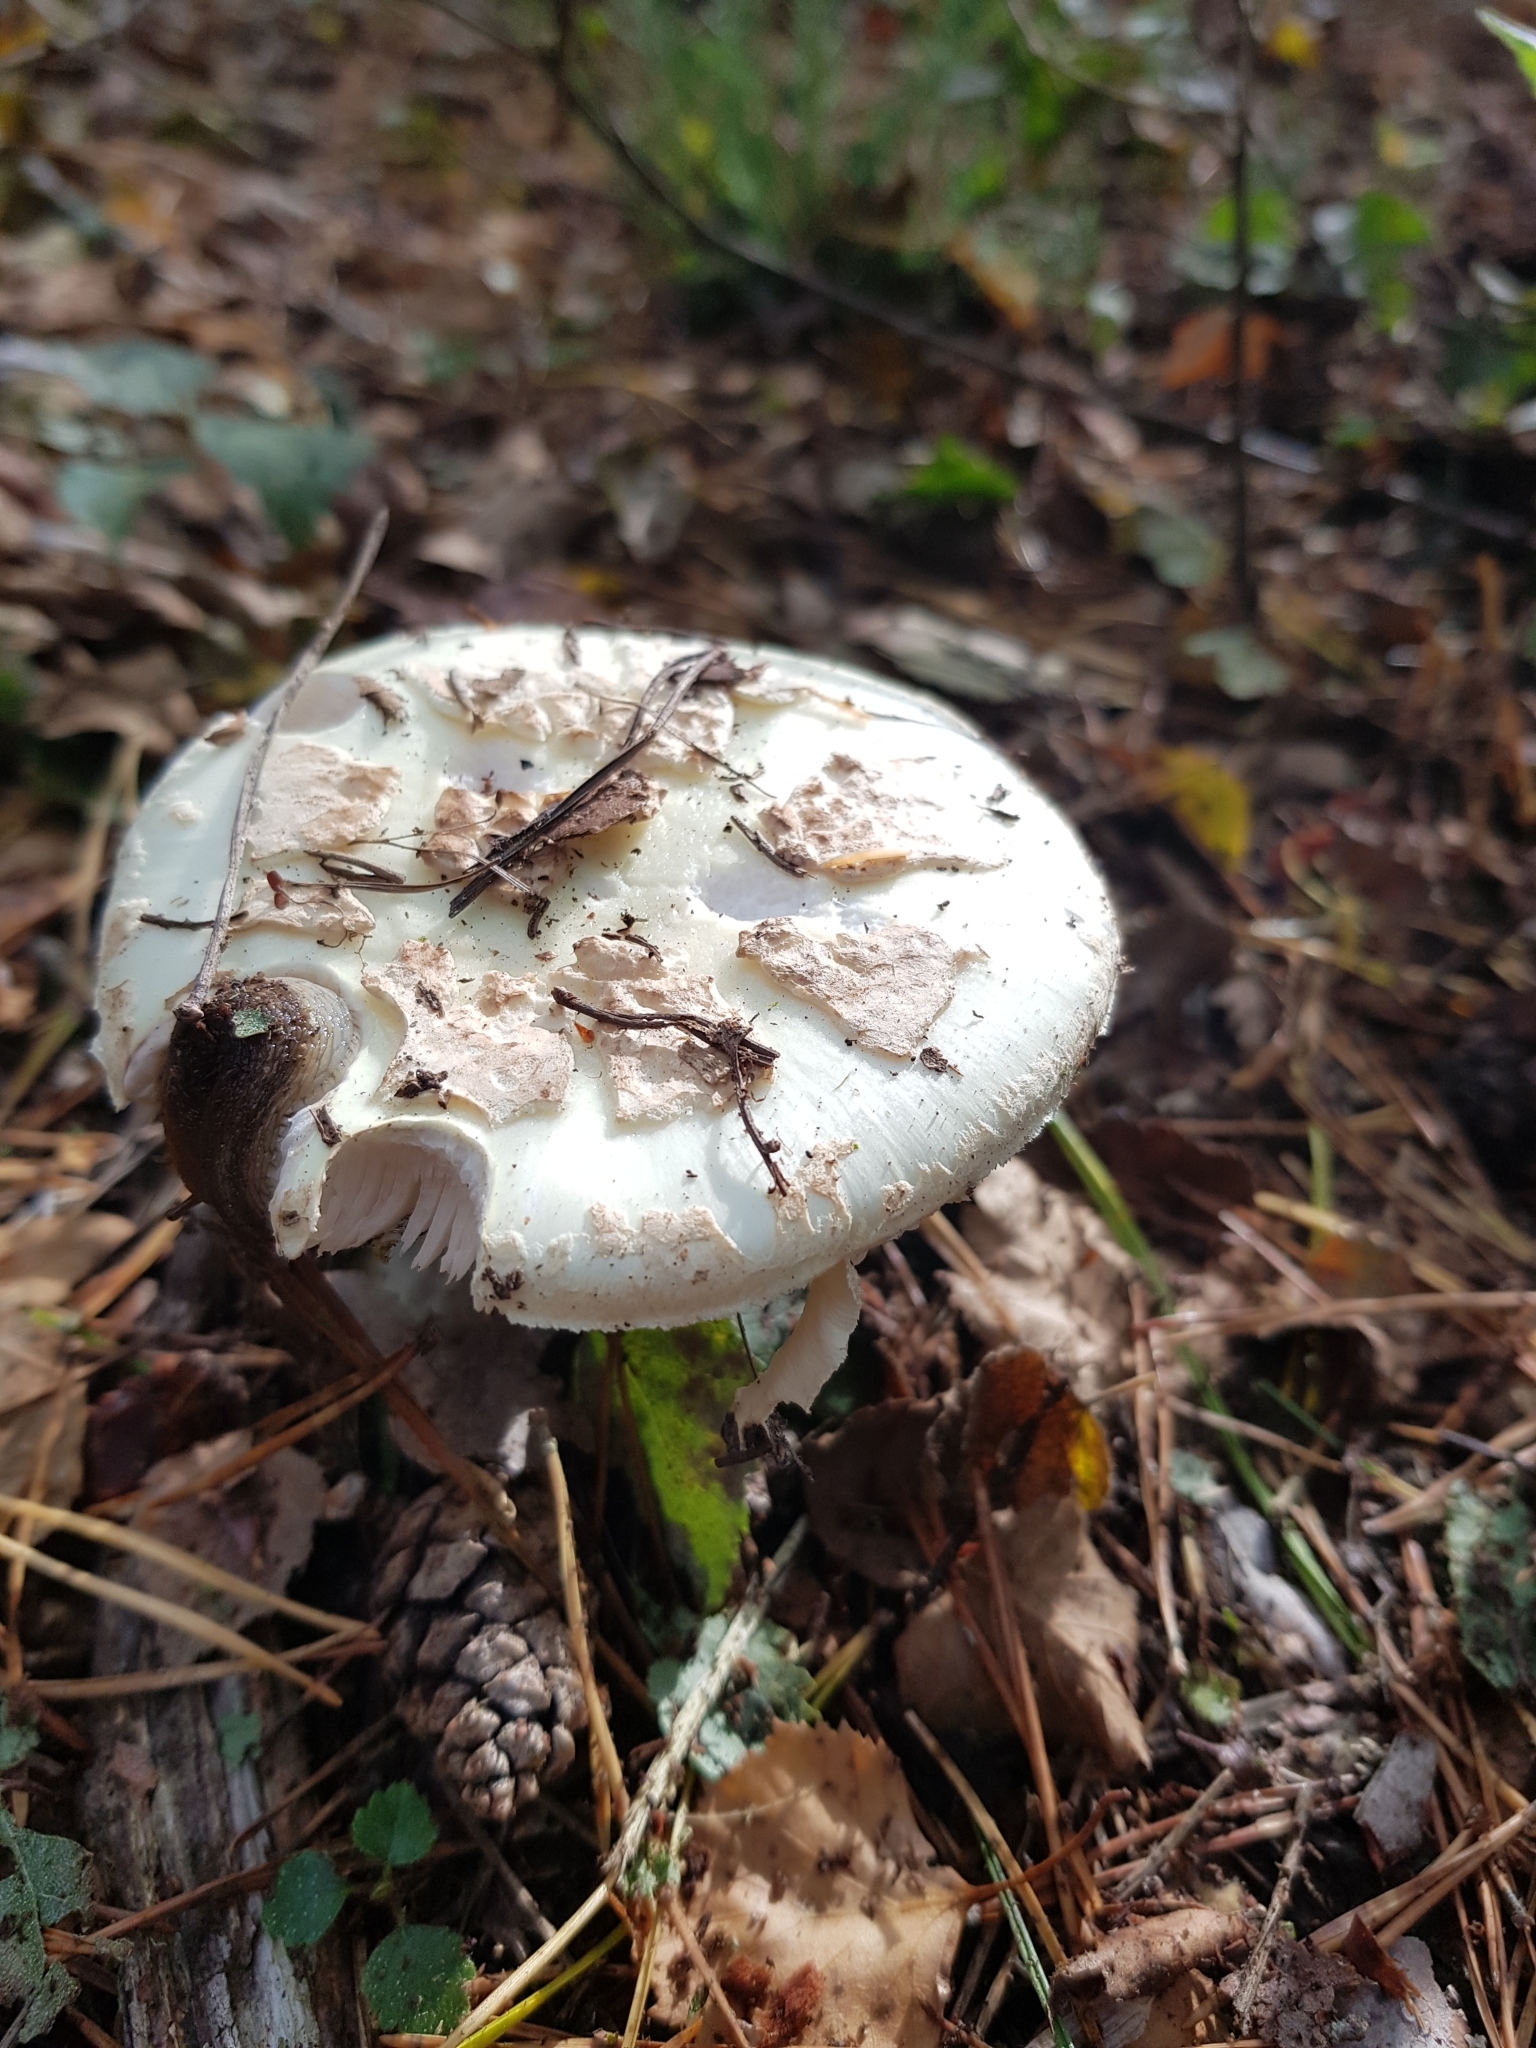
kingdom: Fungi
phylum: Basidiomycota
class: Agaricomycetes
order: Agaricales
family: Amanitaceae
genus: Amanita
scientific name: Amanita citrina
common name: False death-cap
